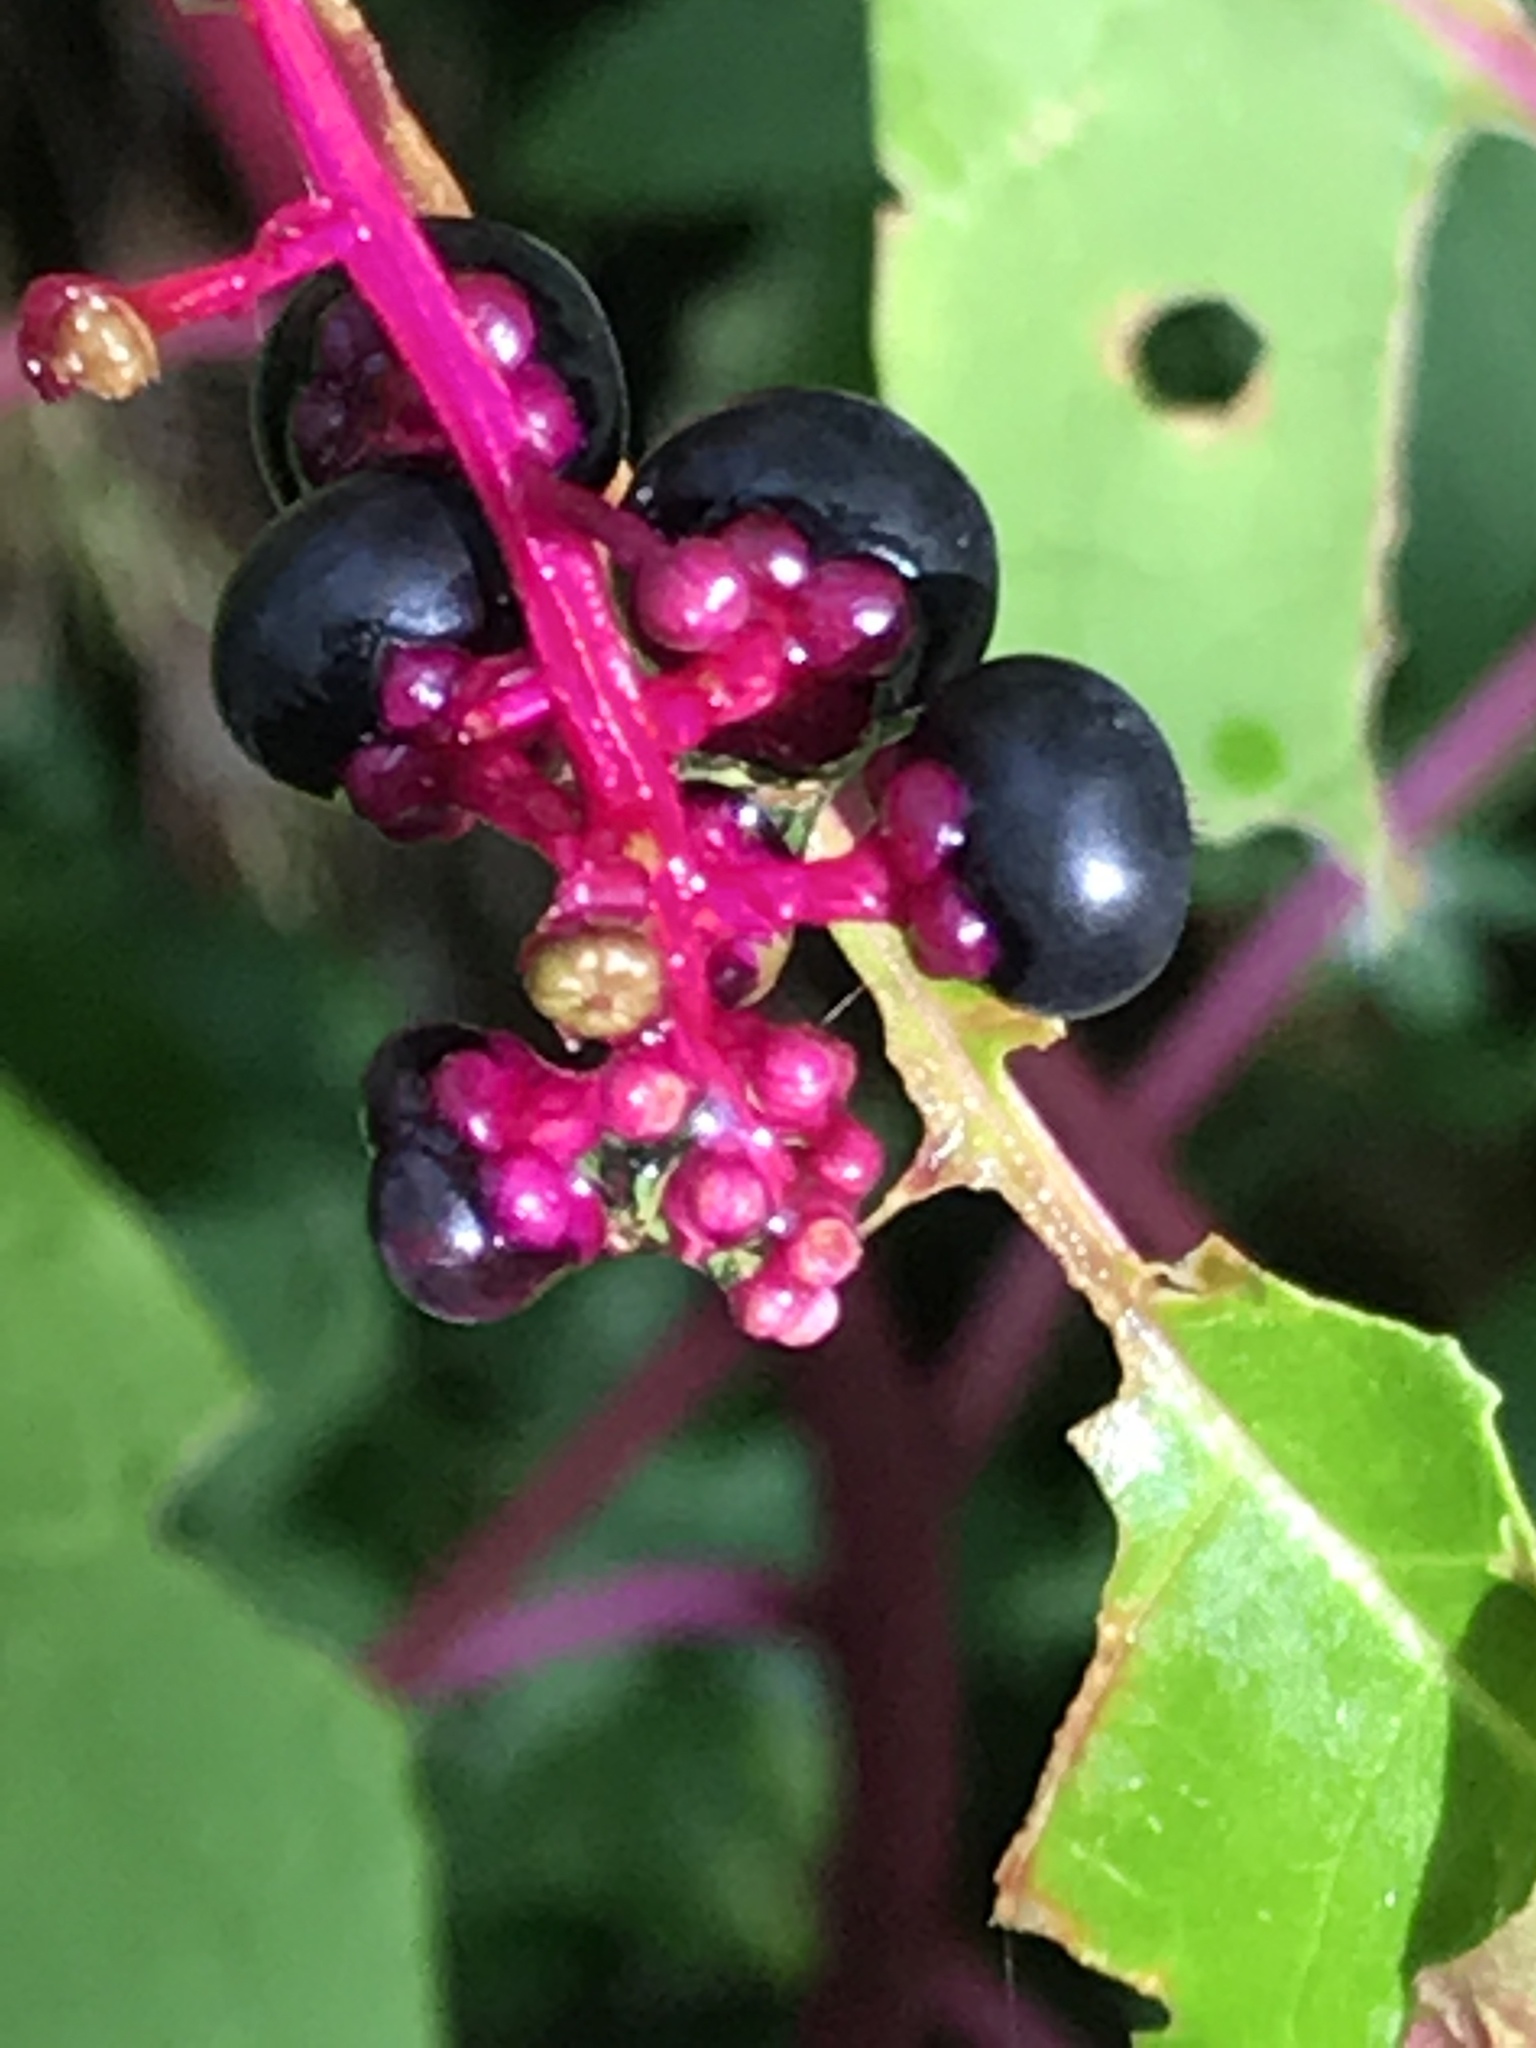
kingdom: Plantae
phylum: Tracheophyta
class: Magnoliopsida
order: Caryophyllales
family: Phytolaccaceae
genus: Phytolacca
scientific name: Phytolacca americana
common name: American pokeweed
